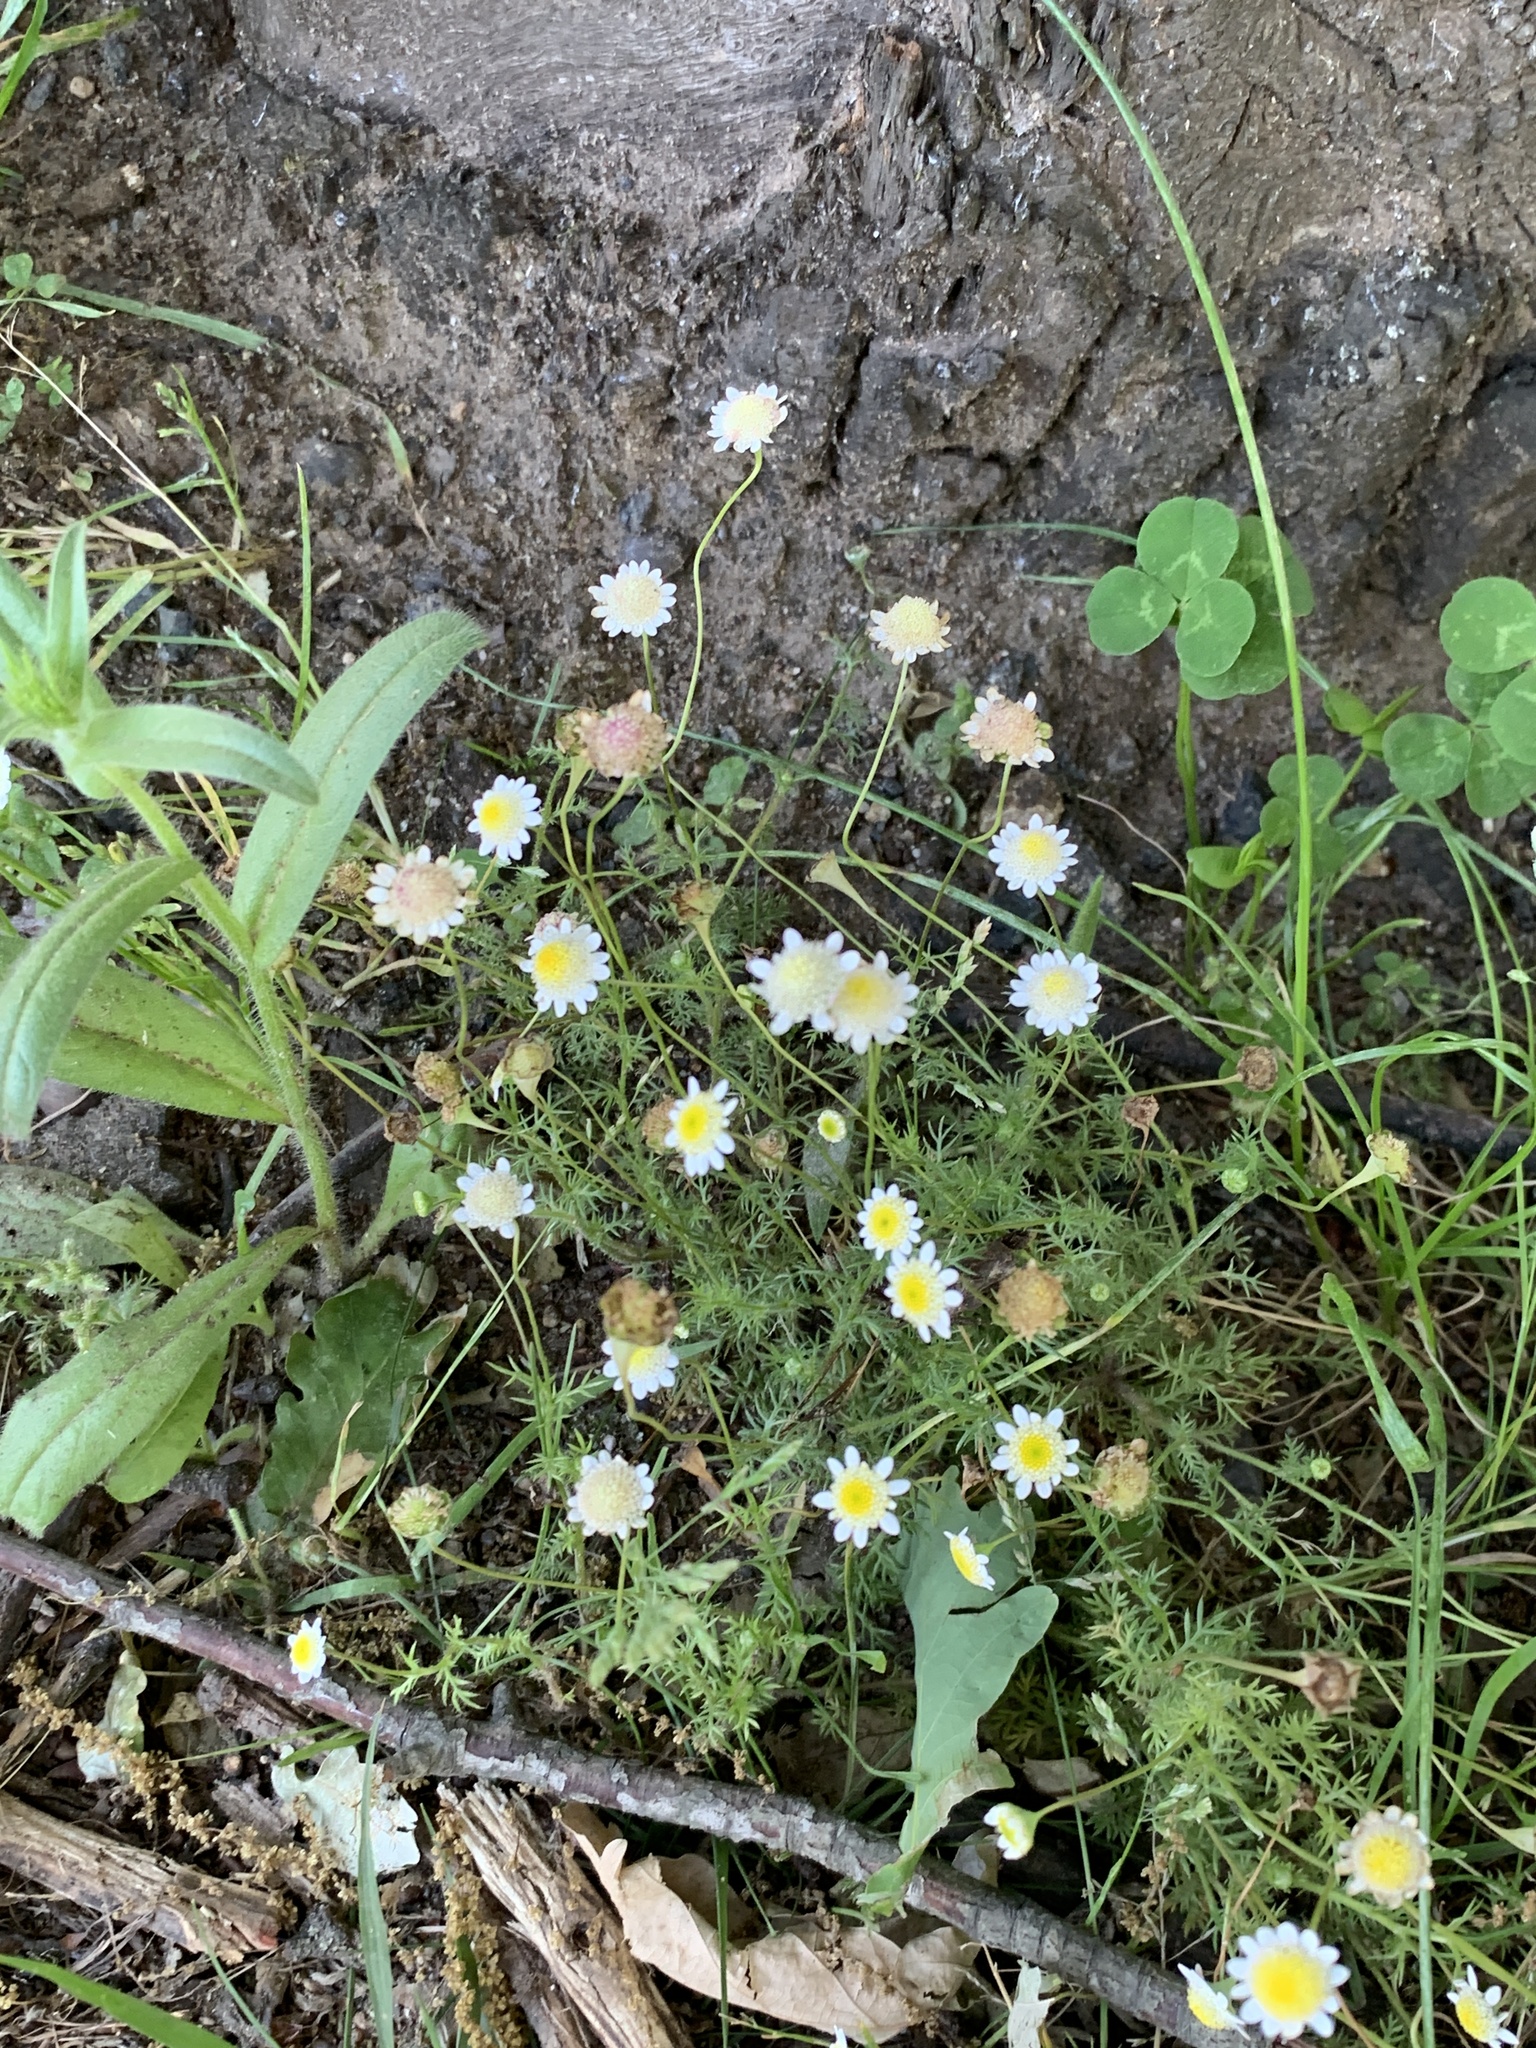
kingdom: Plantae
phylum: Tracheophyta
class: Magnoliopsida
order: Asterales
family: Asteraceae
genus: Cotula
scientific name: Cotula turbinata
